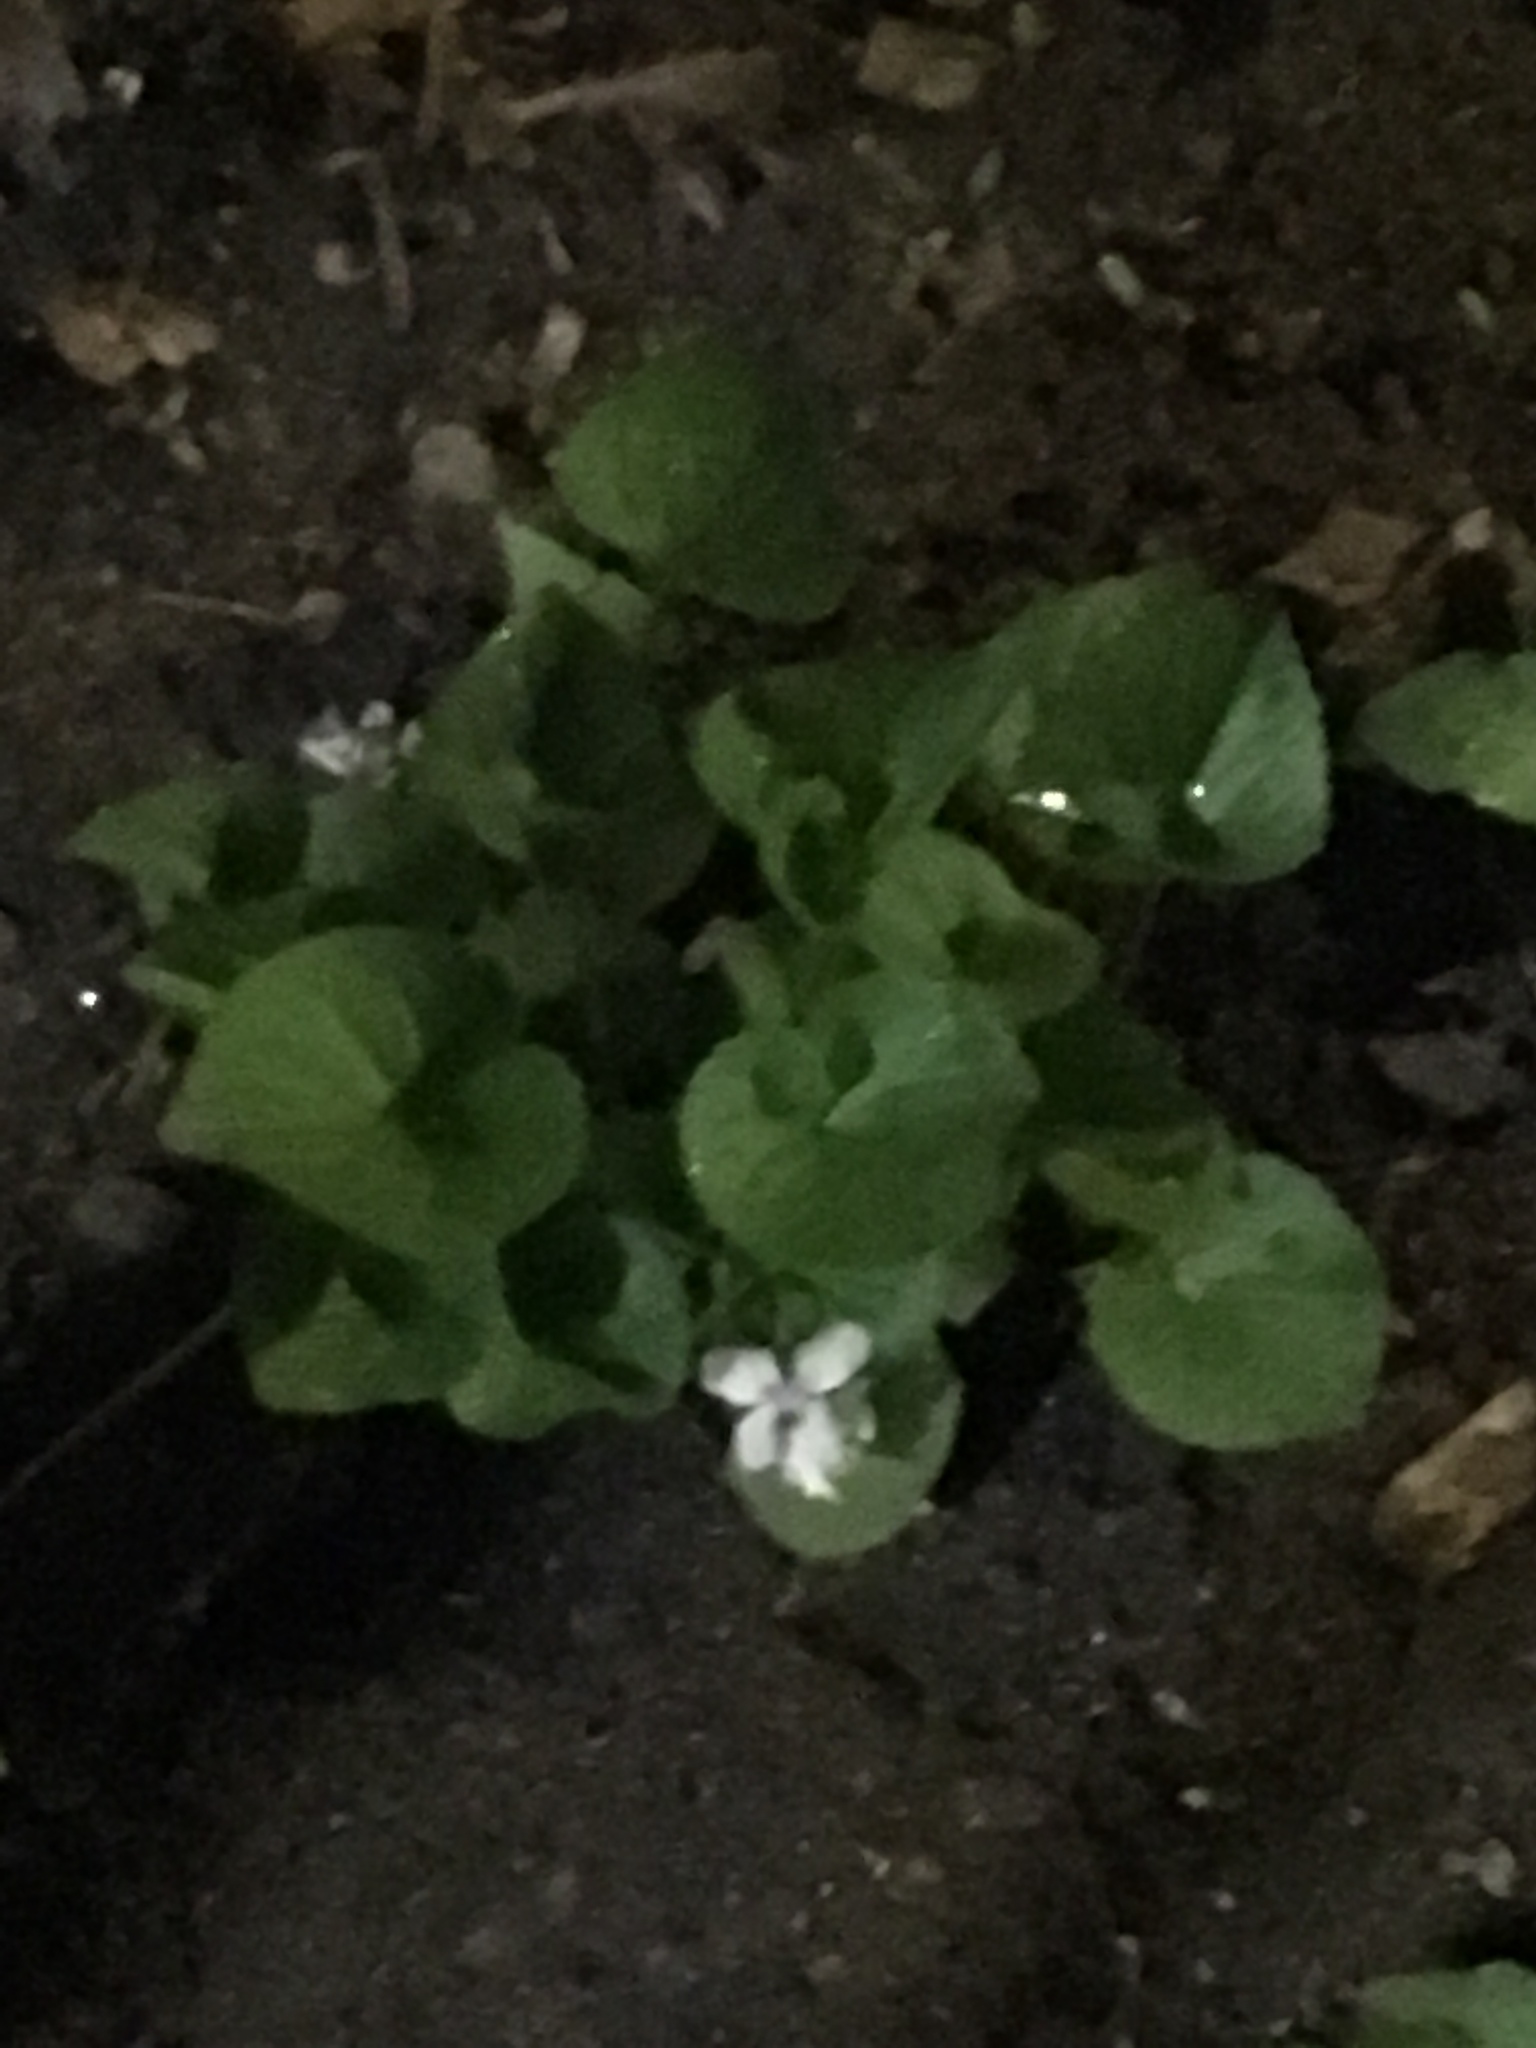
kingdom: Plantae
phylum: Tracheophyta
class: Magnoliopsida
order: Malpighiales
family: Violaceae
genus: Viola
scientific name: Viola sororia
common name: Dooryard violet
